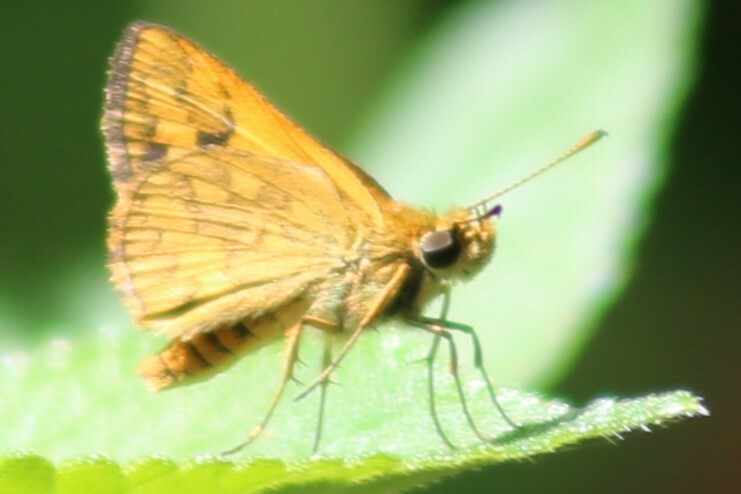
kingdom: Animalia
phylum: Arthropoda
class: Insecta
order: Lepidoptera
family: Hesperiidae
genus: Suniana
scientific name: Suniana sunias
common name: Wide-brand grass-dart
